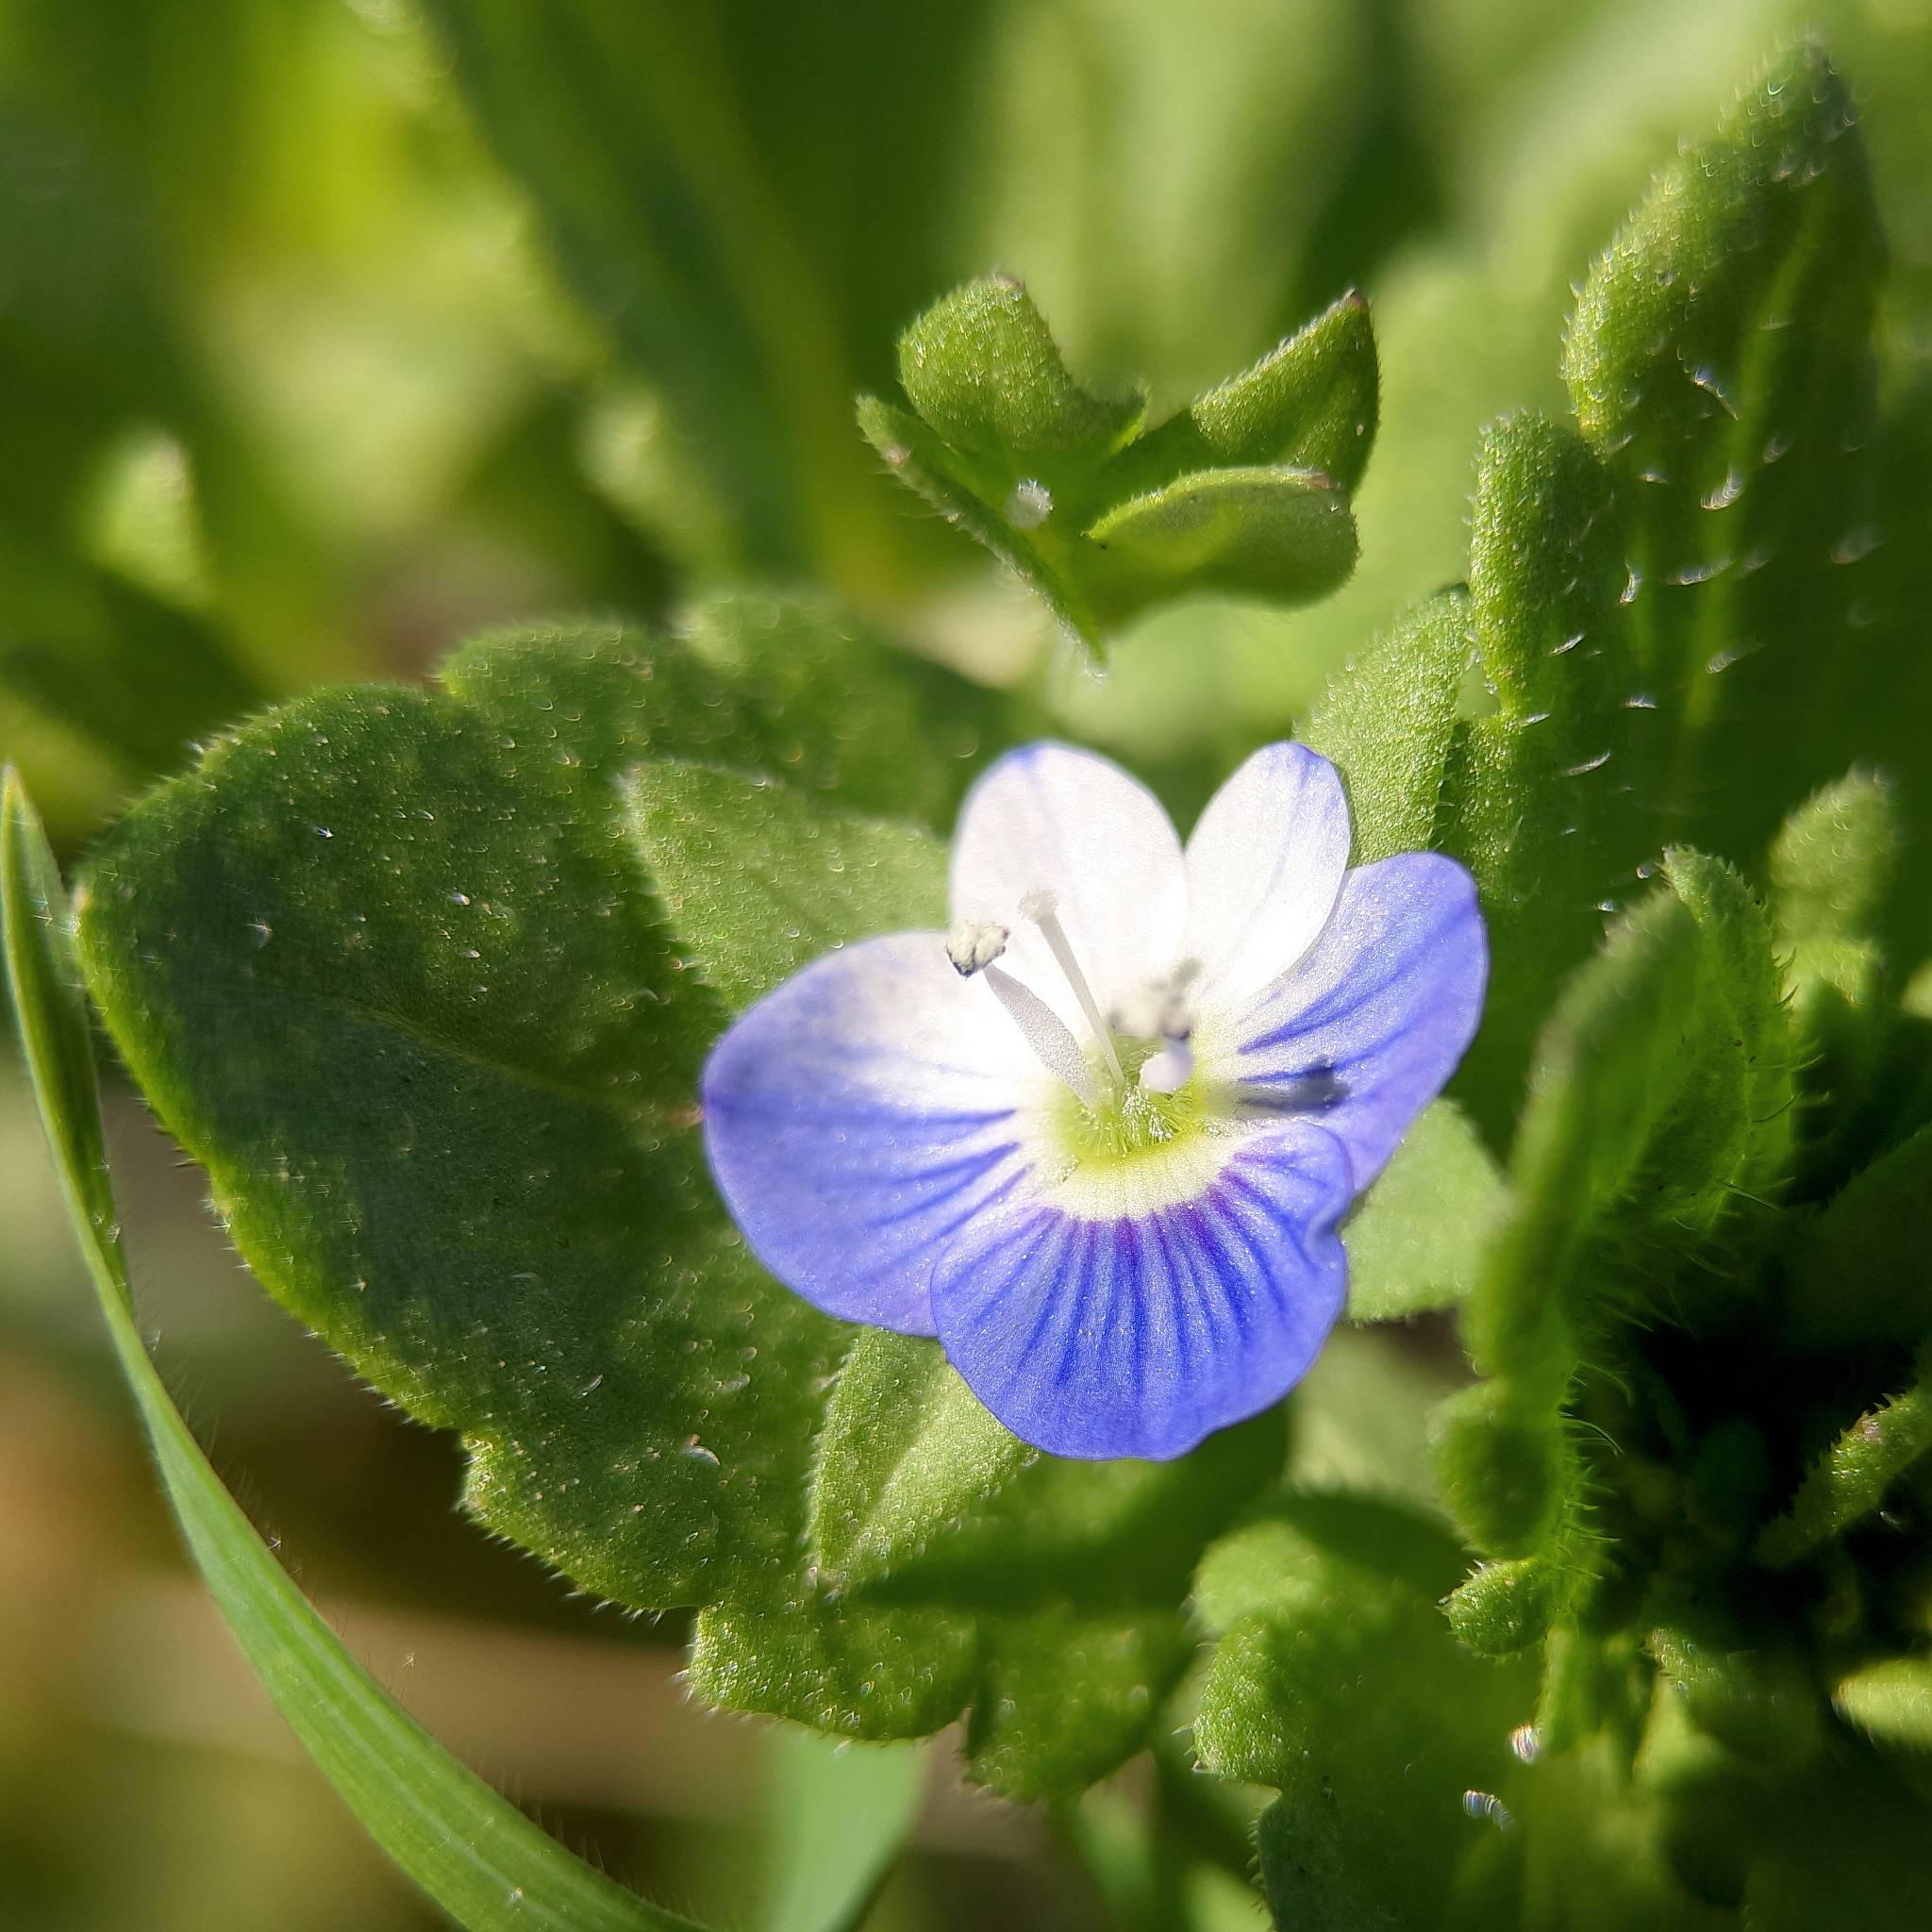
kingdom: Plantae
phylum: Tracheophyta
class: Magnoliopsida
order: Lamiales
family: Plantaginaceae
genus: Veronica
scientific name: Veronica persica
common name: Common field-speedwell
